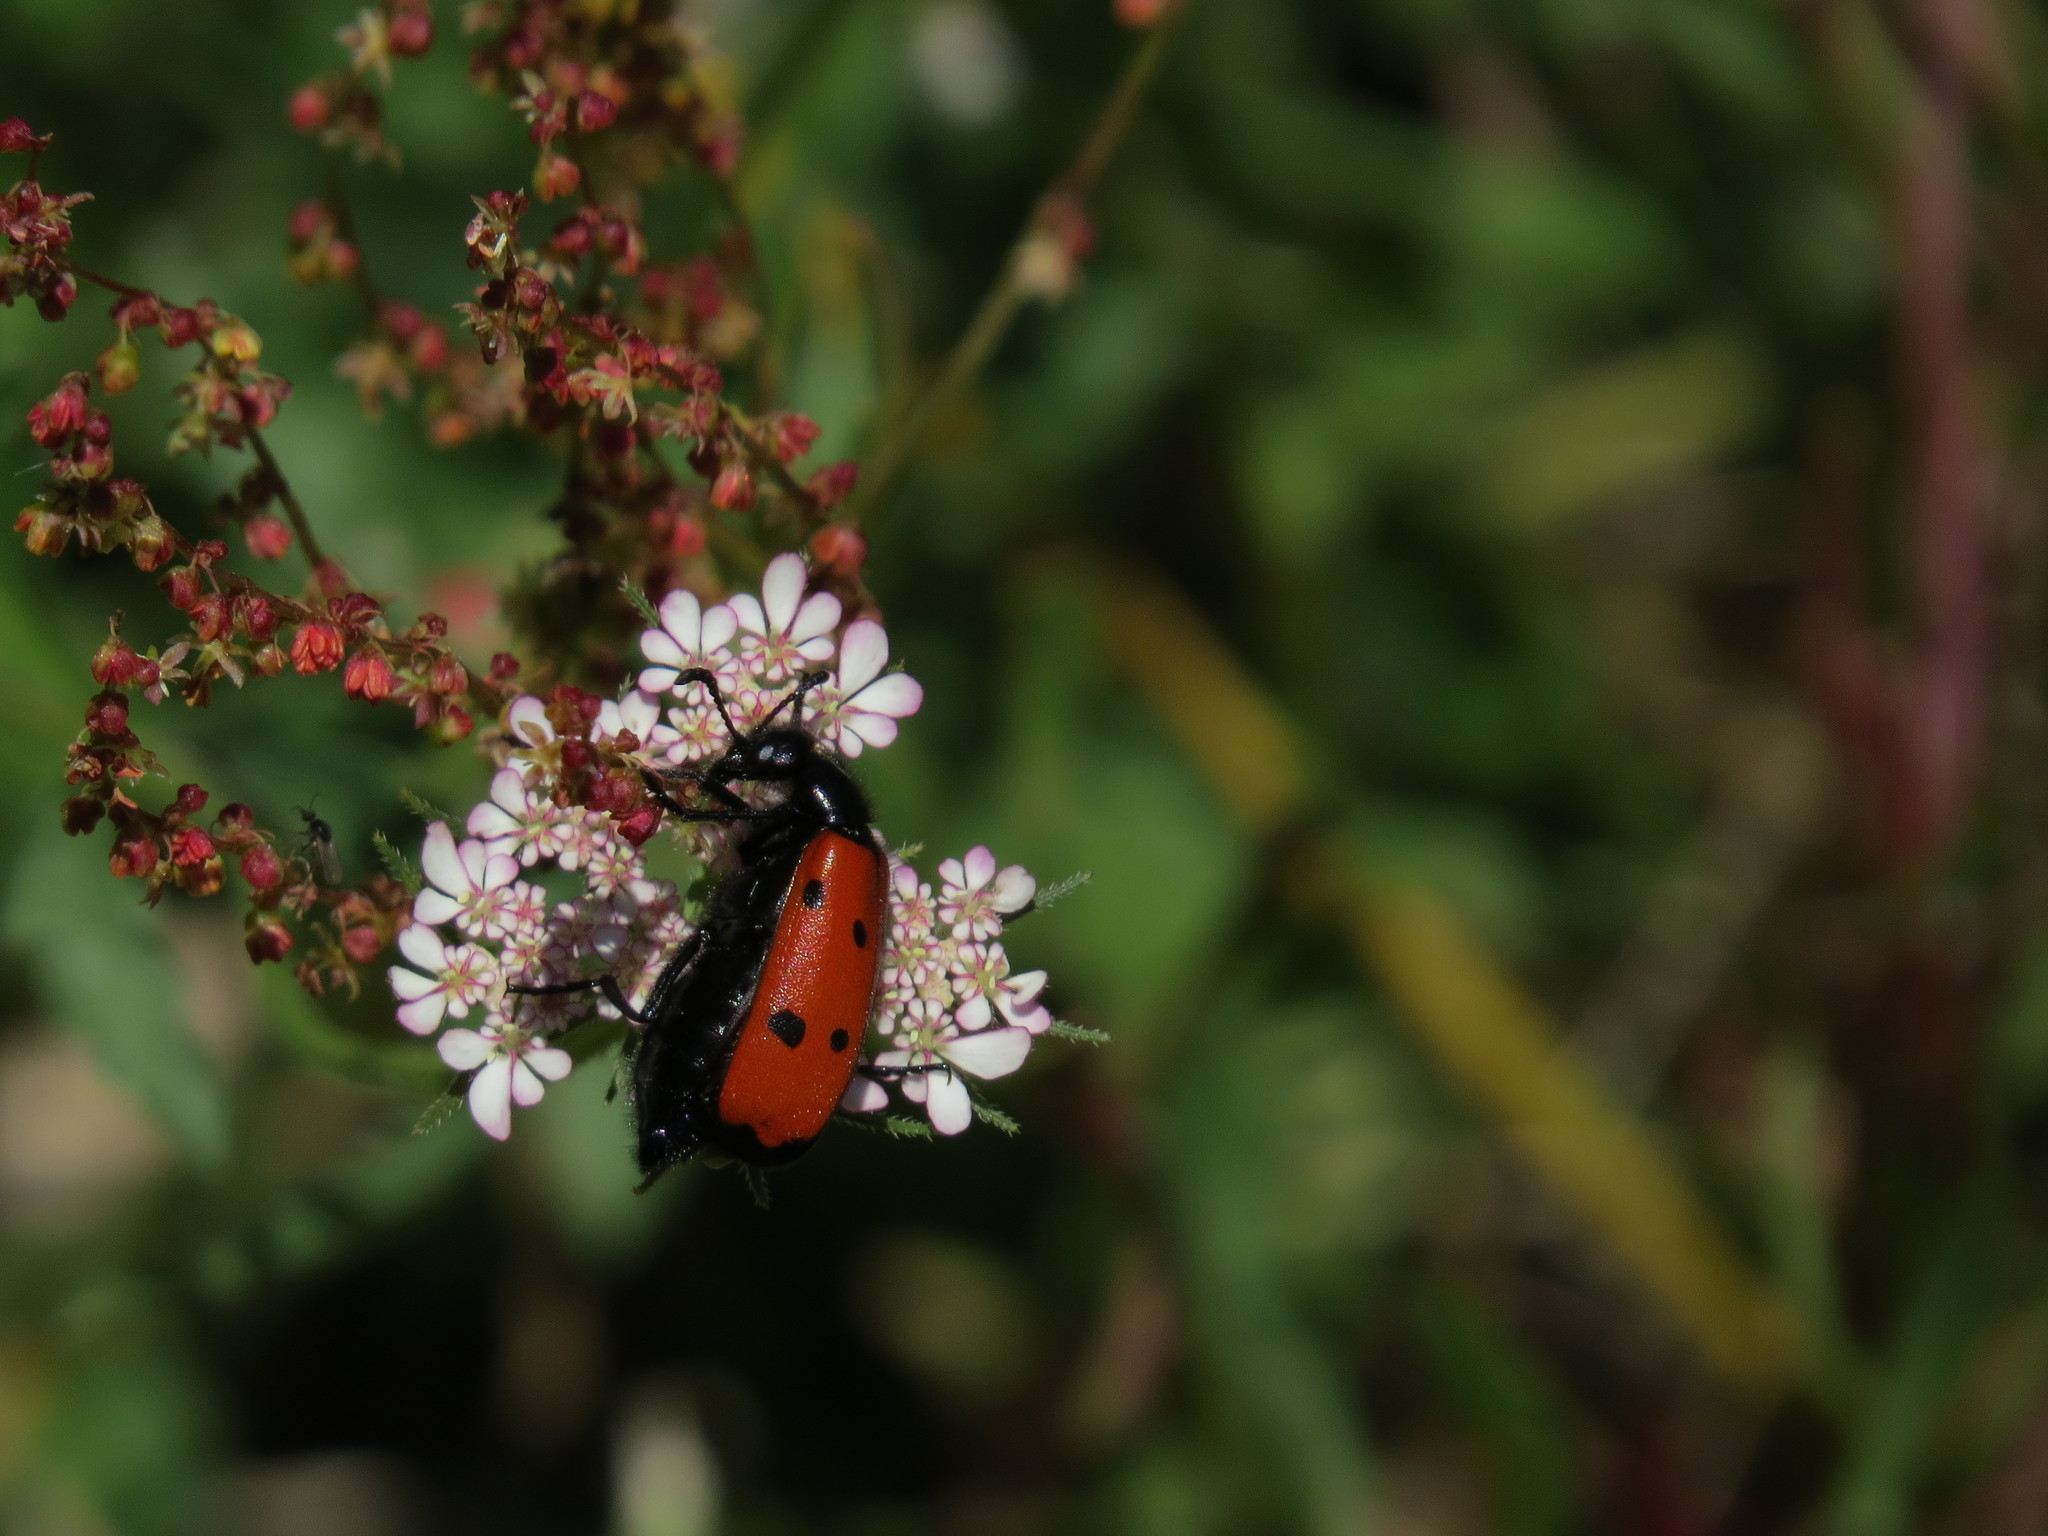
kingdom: Animalia
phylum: Arthropoda
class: Insecta
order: Coleoptera
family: Meloidae
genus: Mylabris
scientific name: Mylabris quadripunctata
